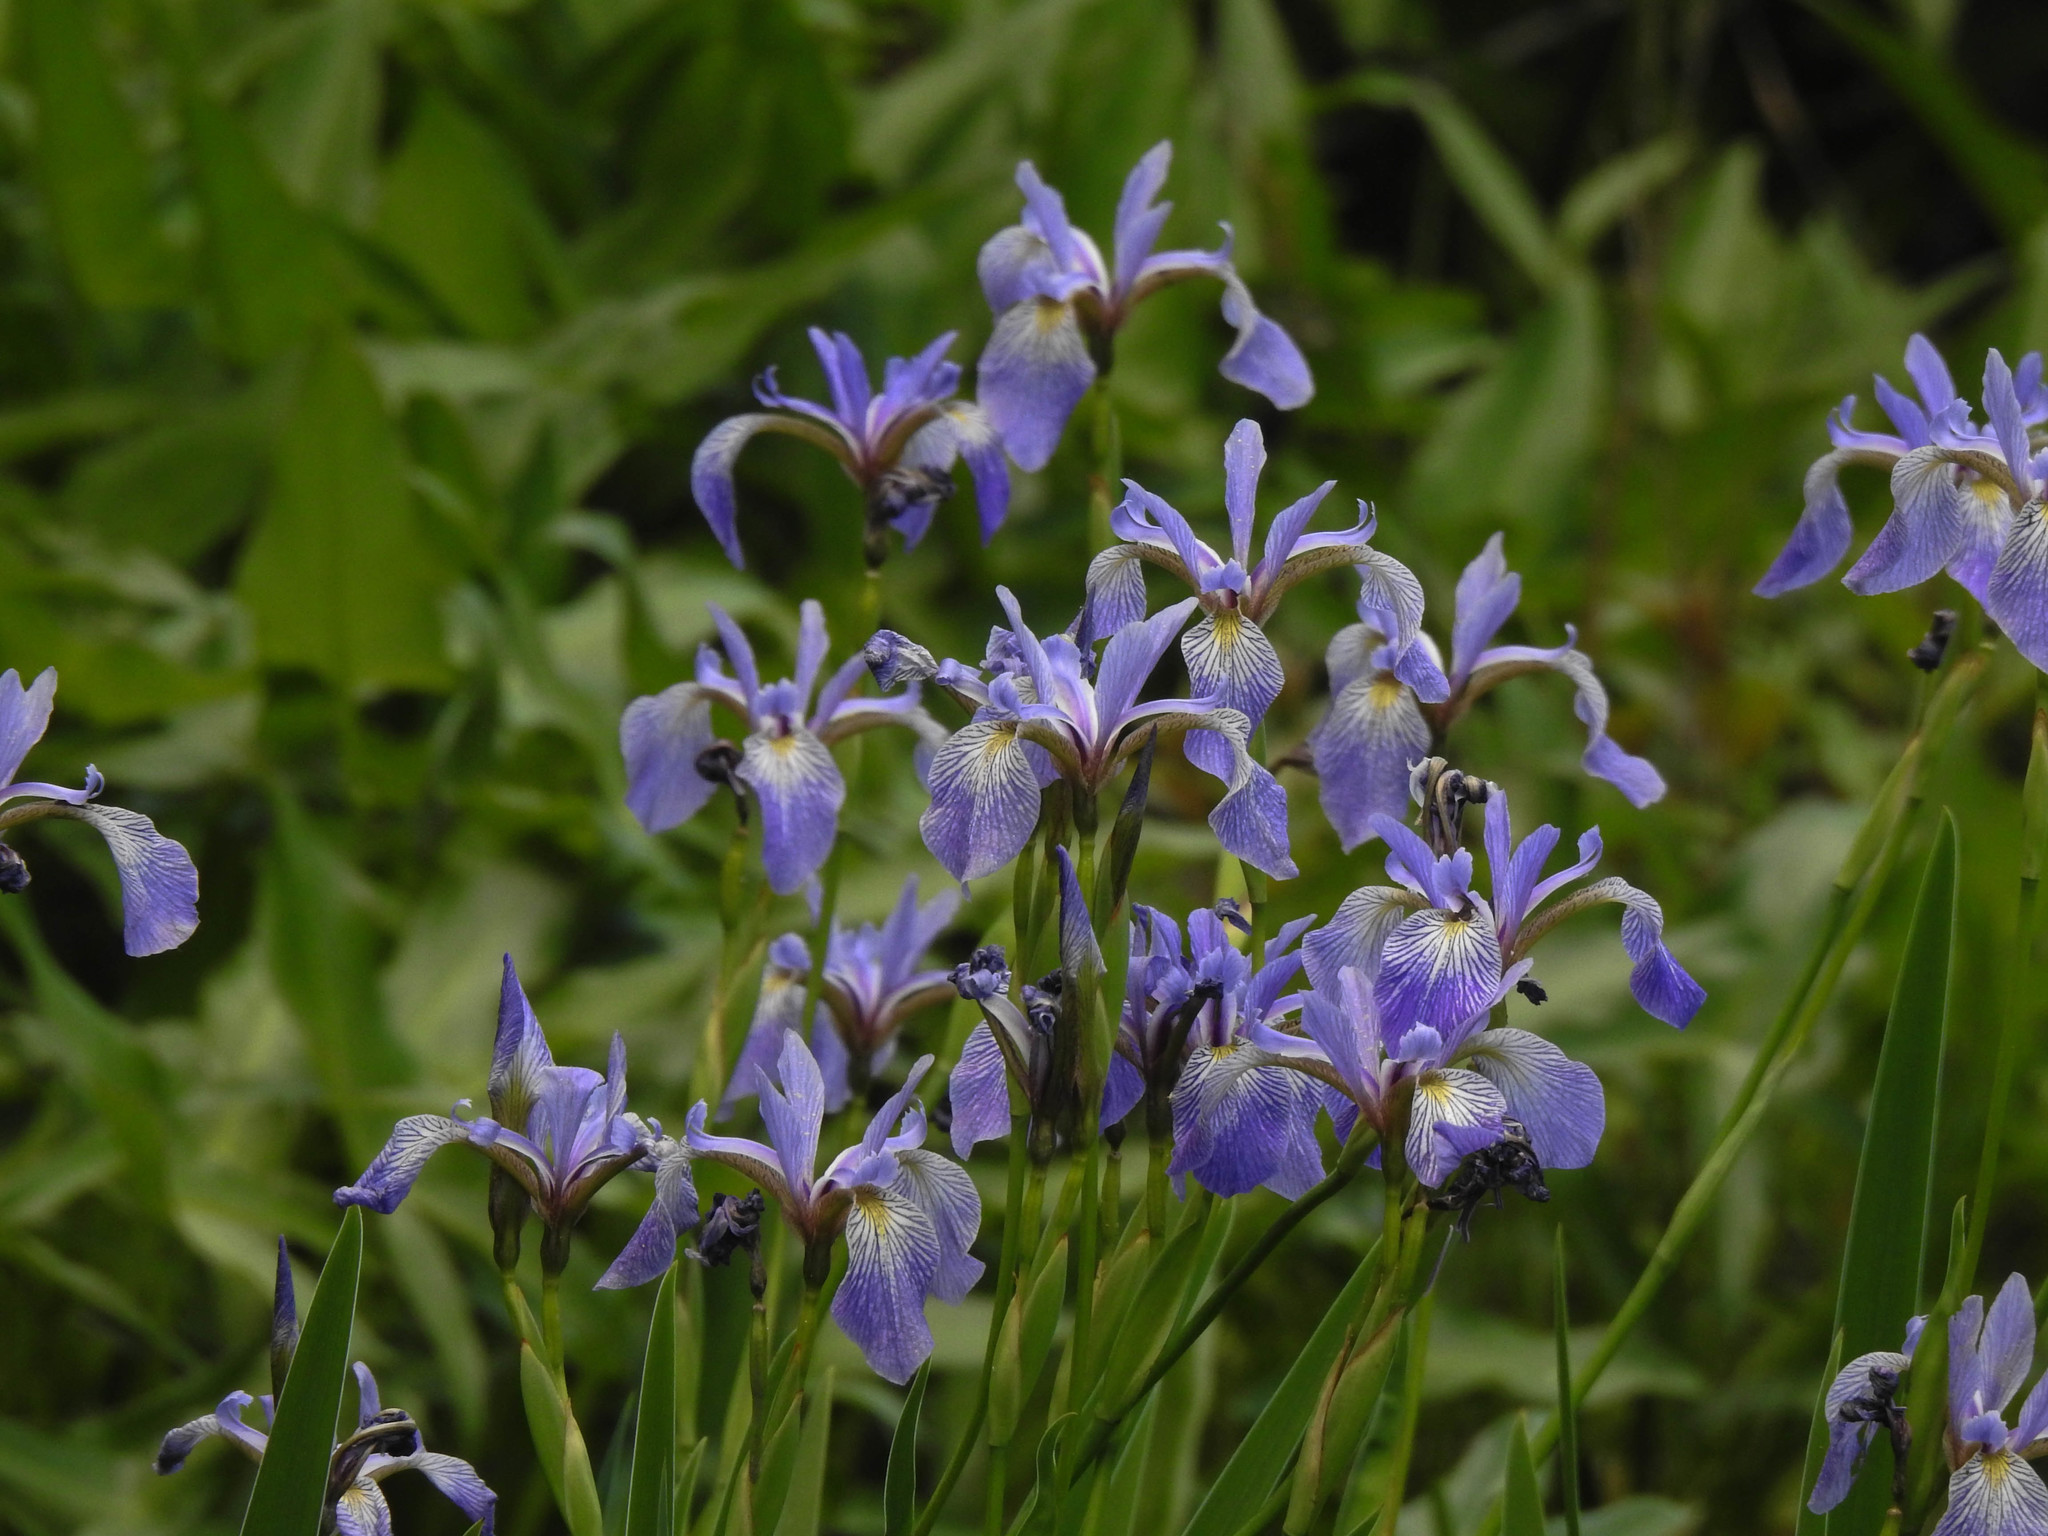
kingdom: Plantae
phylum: Tracheophyta
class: Liliopsida
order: Asparagales
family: Iridaceae
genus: Iris
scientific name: Iris versicolor
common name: Purple iris
